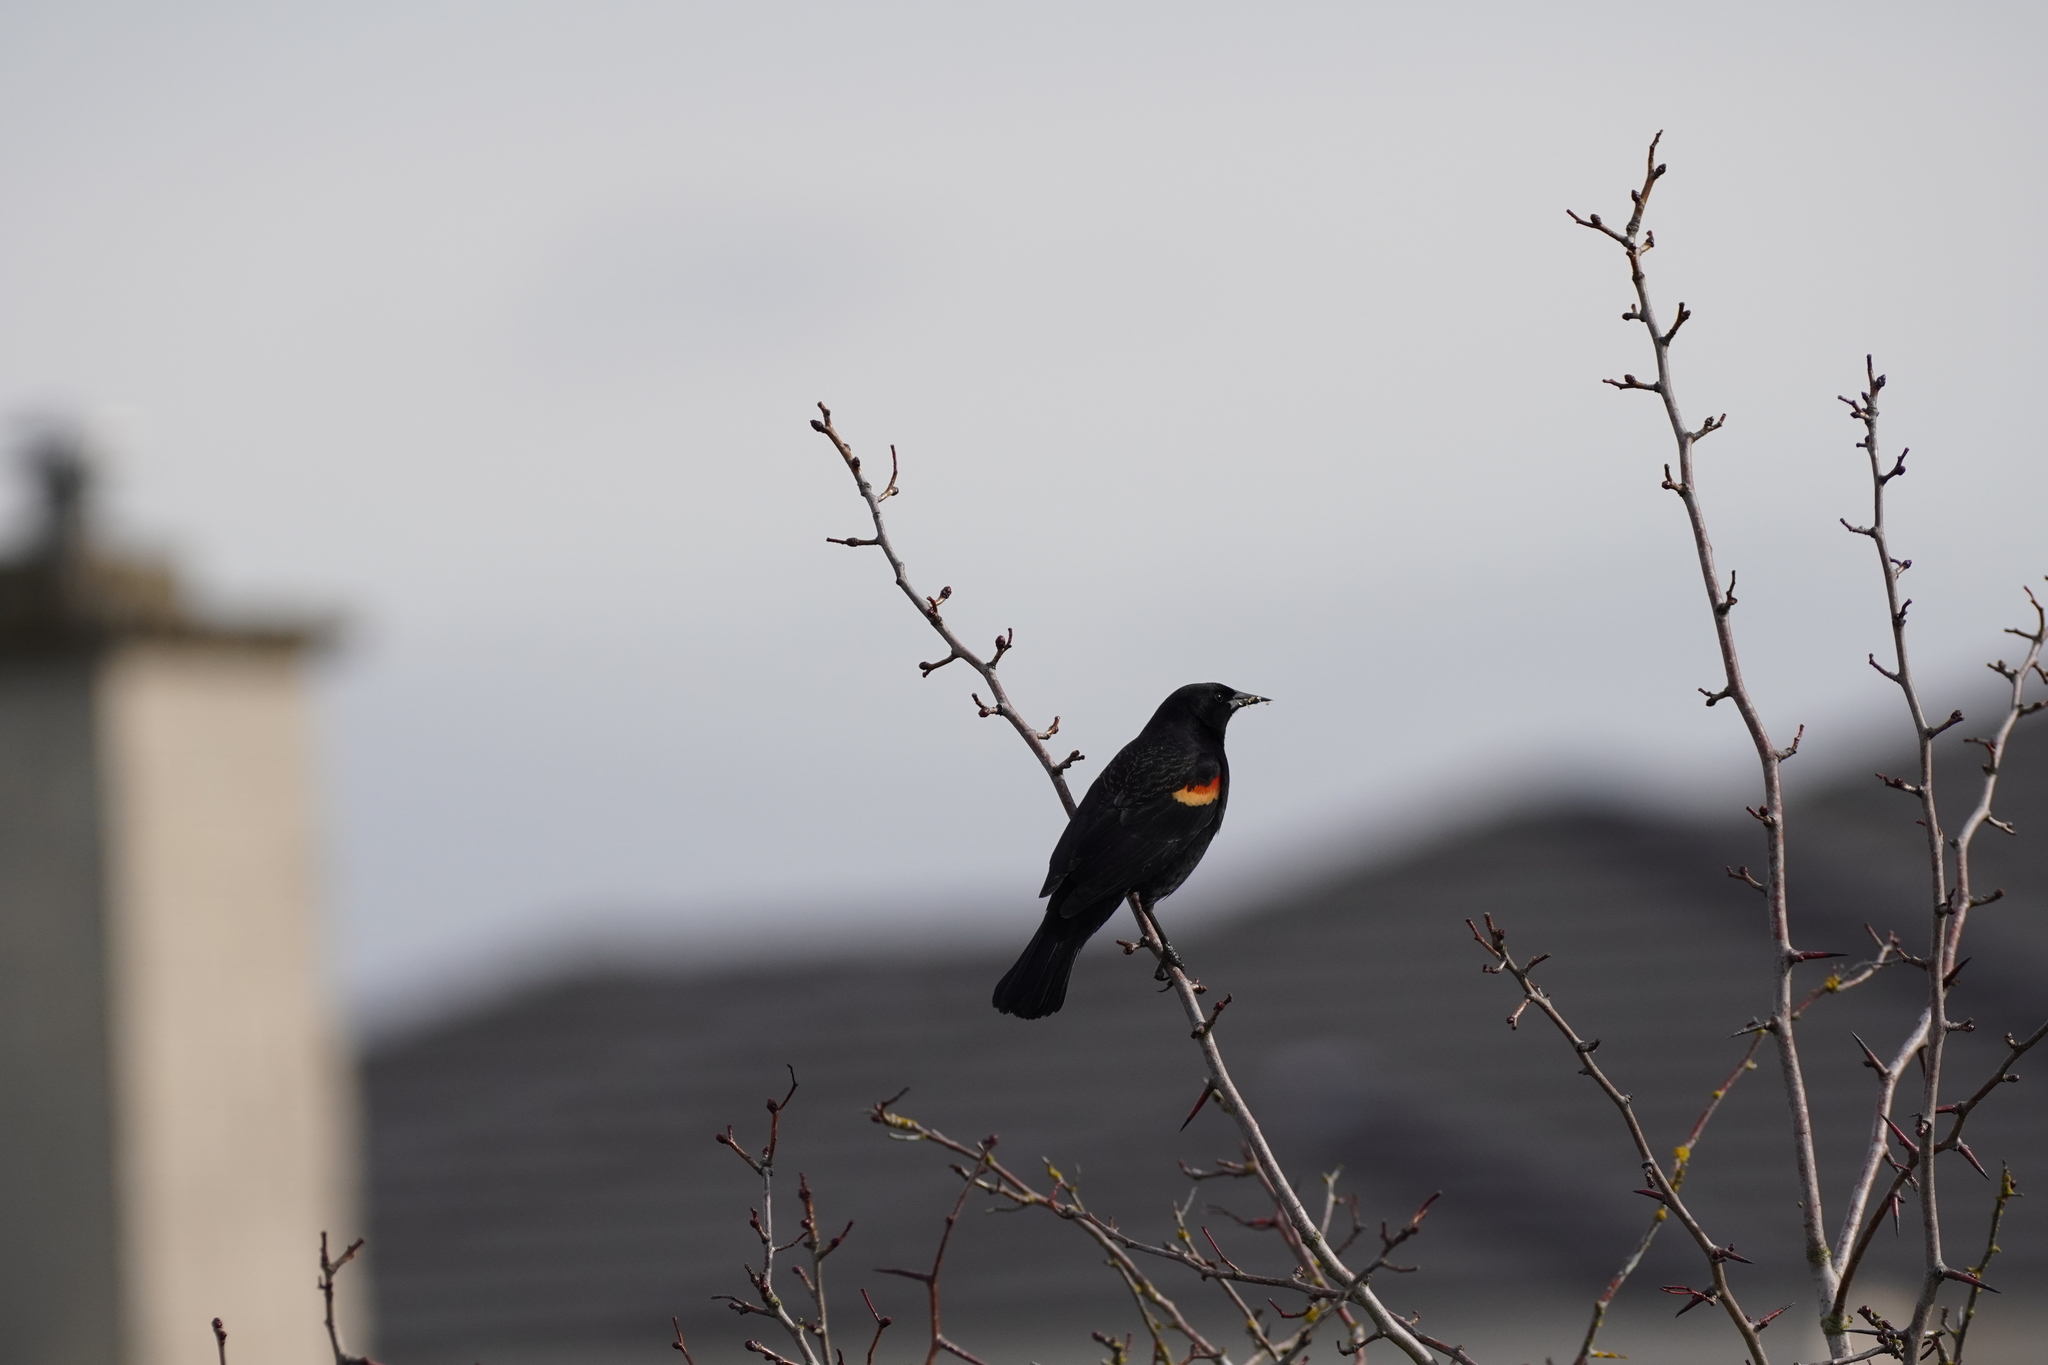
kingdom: Animalia
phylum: Chordata
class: Aves
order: Passeriformes
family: Icteridae
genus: Agelaius
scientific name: Agelaius phoeniceus
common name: Red-winged blackbird
